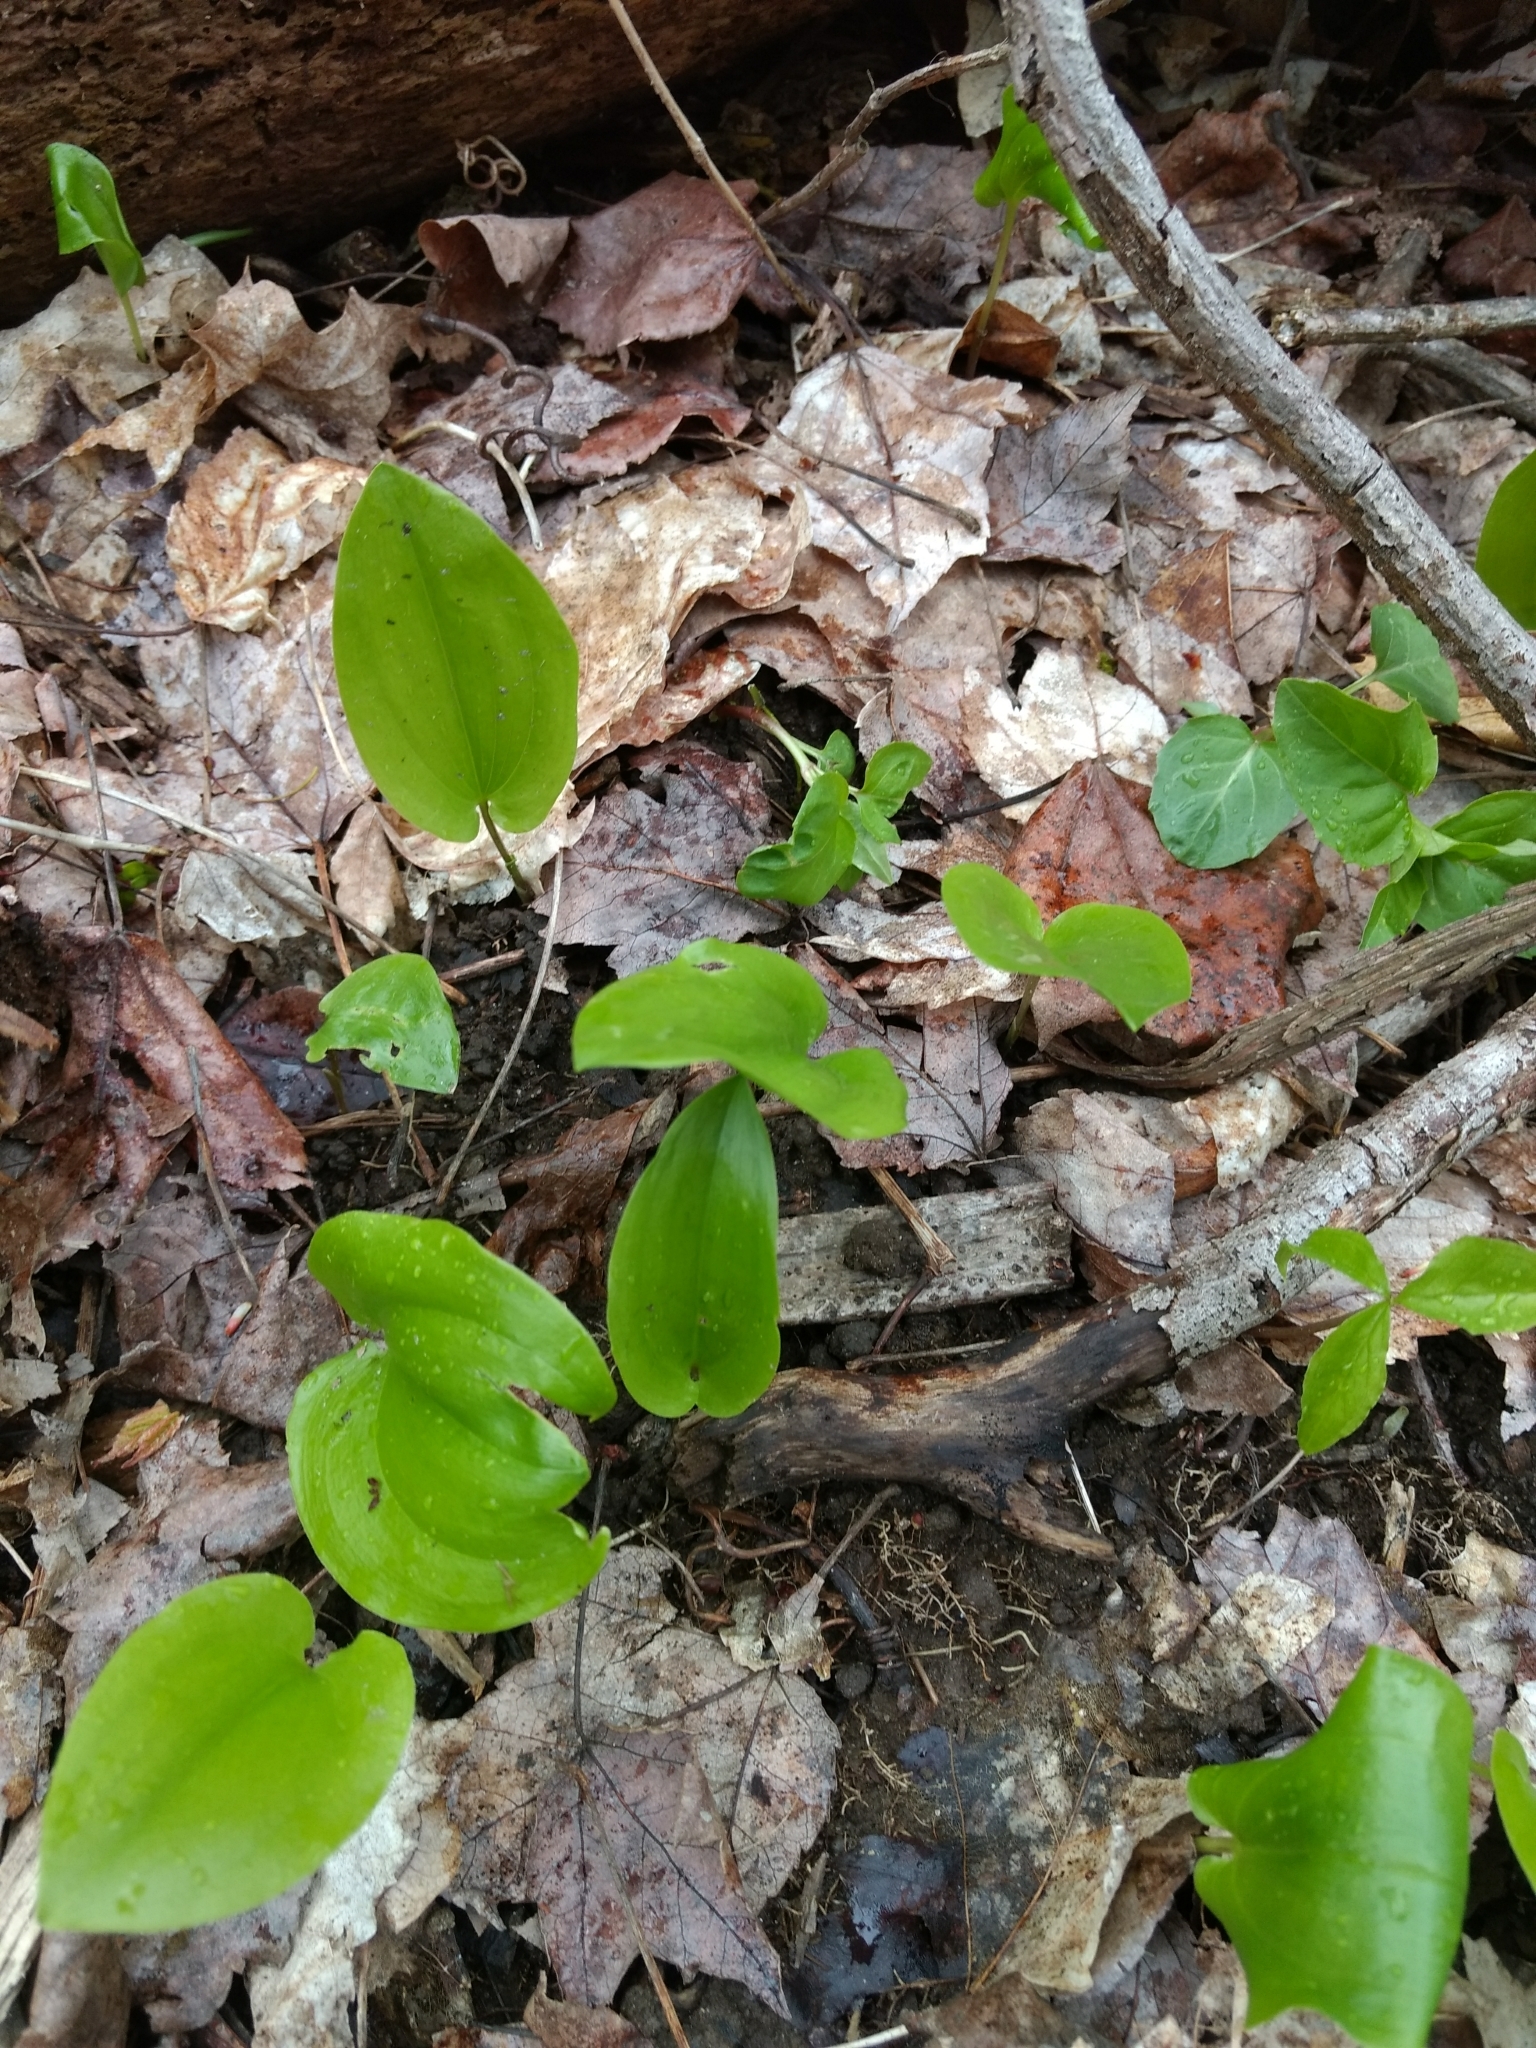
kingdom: Plantae
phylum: Tracheophyta
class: Liliopsida
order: Asparagales
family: Asparagaceae
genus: Maianthemum
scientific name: Maianthemum canadense
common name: False lily-of-the-valley
